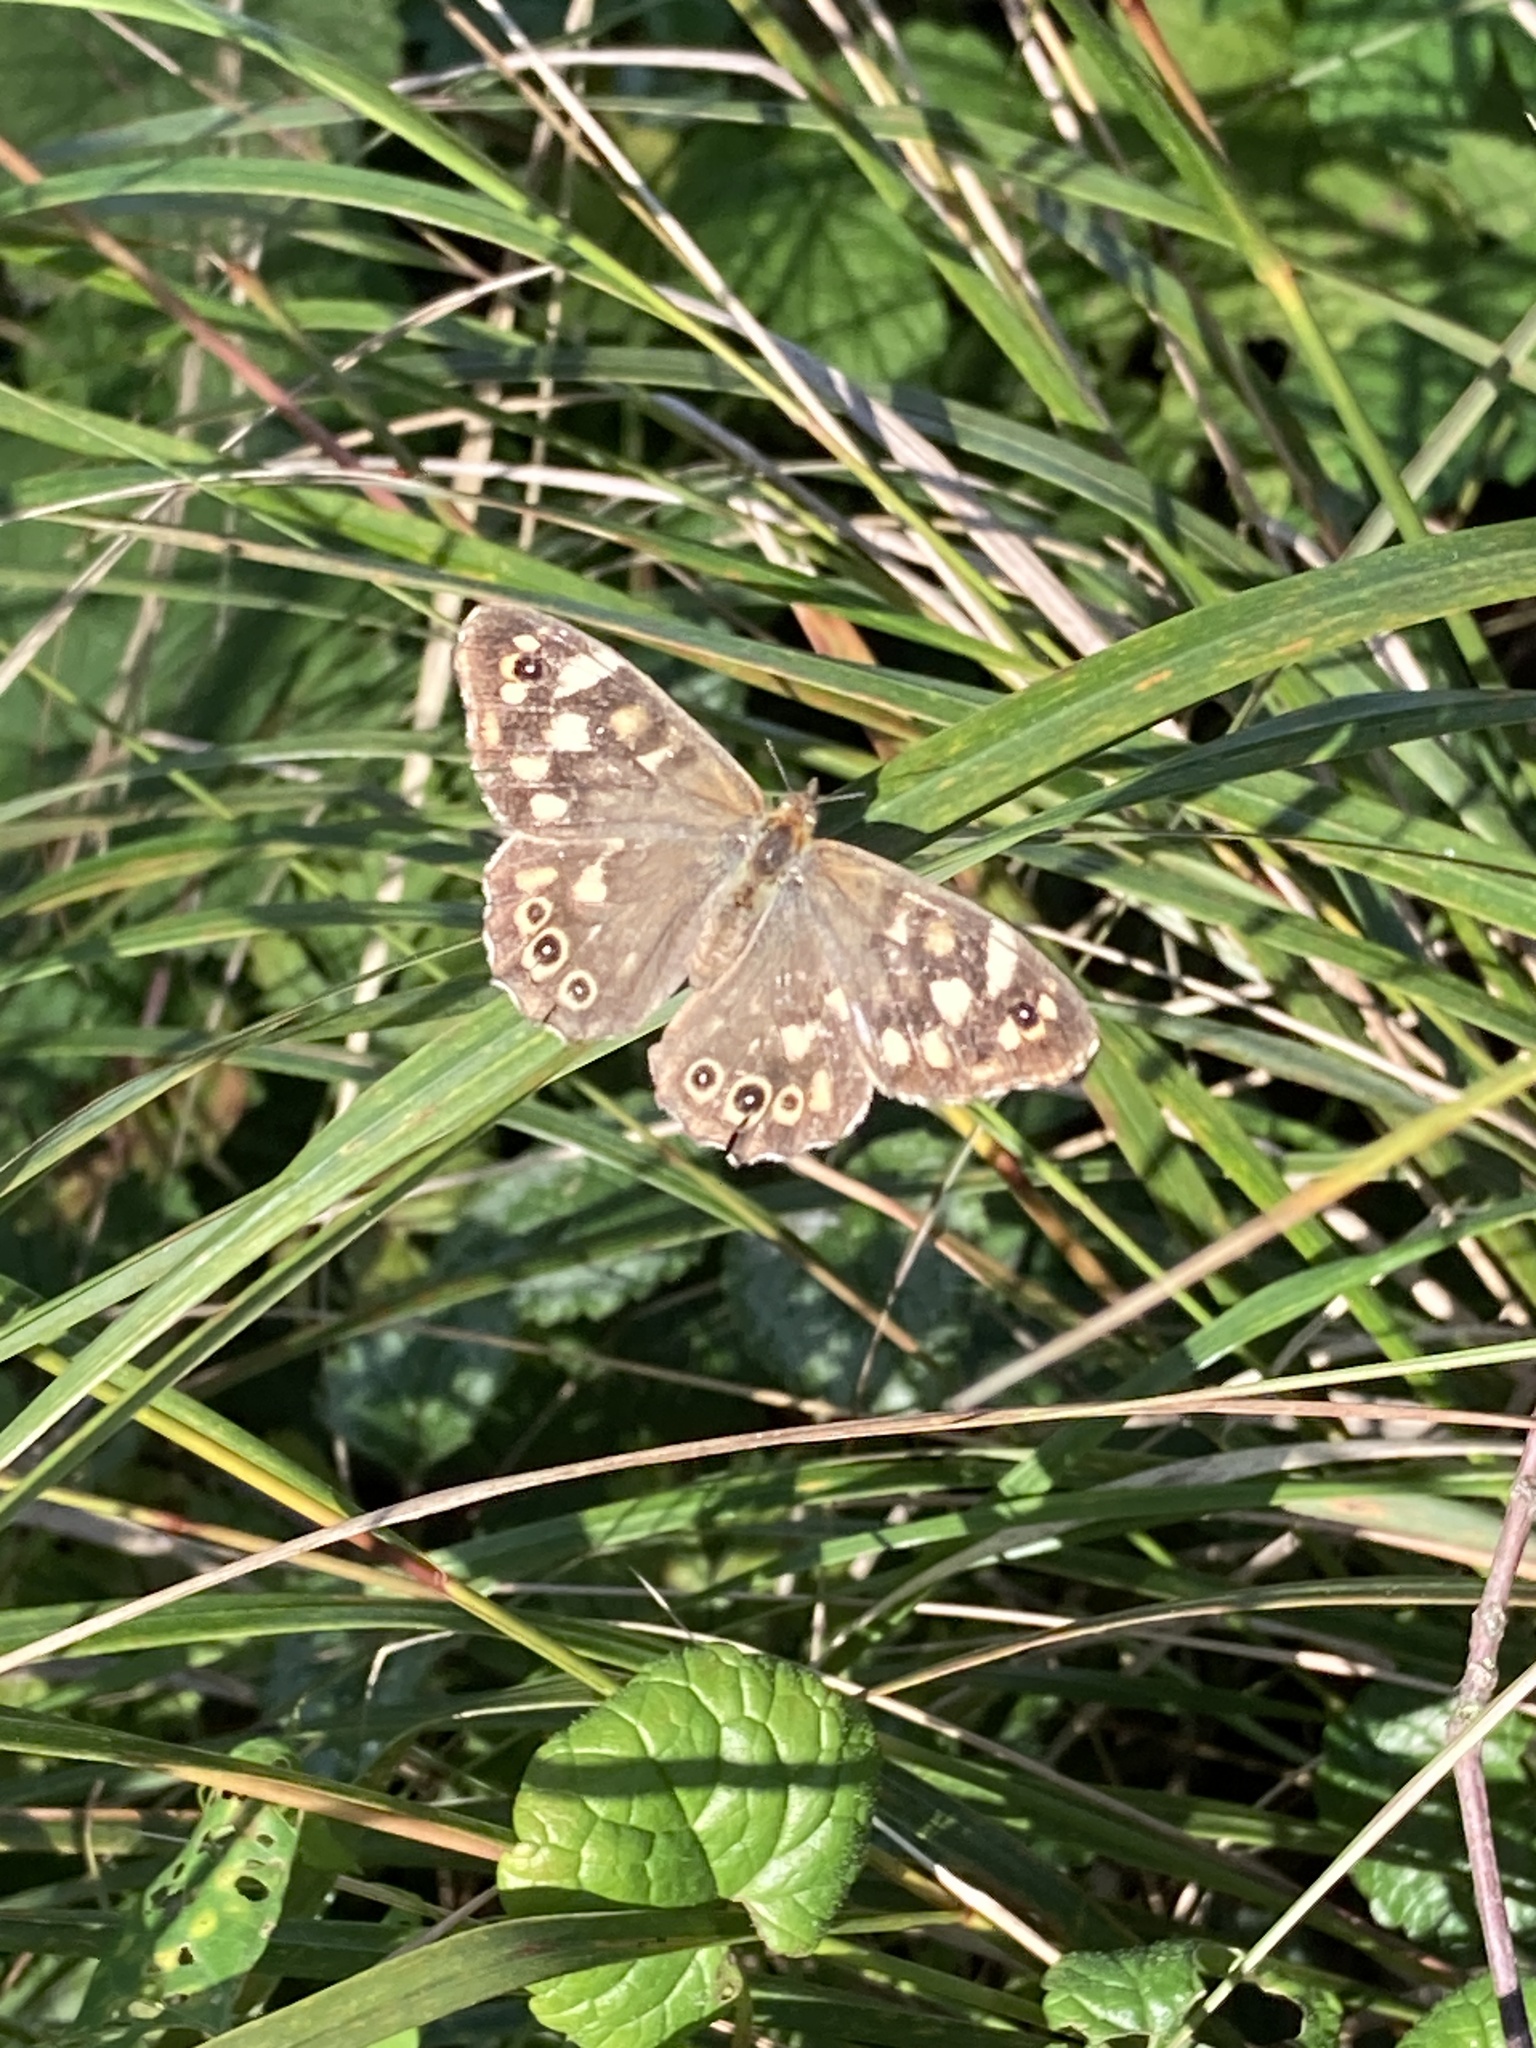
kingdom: Animalia
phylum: Arthropoda
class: Insecta
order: Lepidoptera
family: Nymphalidae
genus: Pararge
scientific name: Pararge aegeria
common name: Speckled wood
